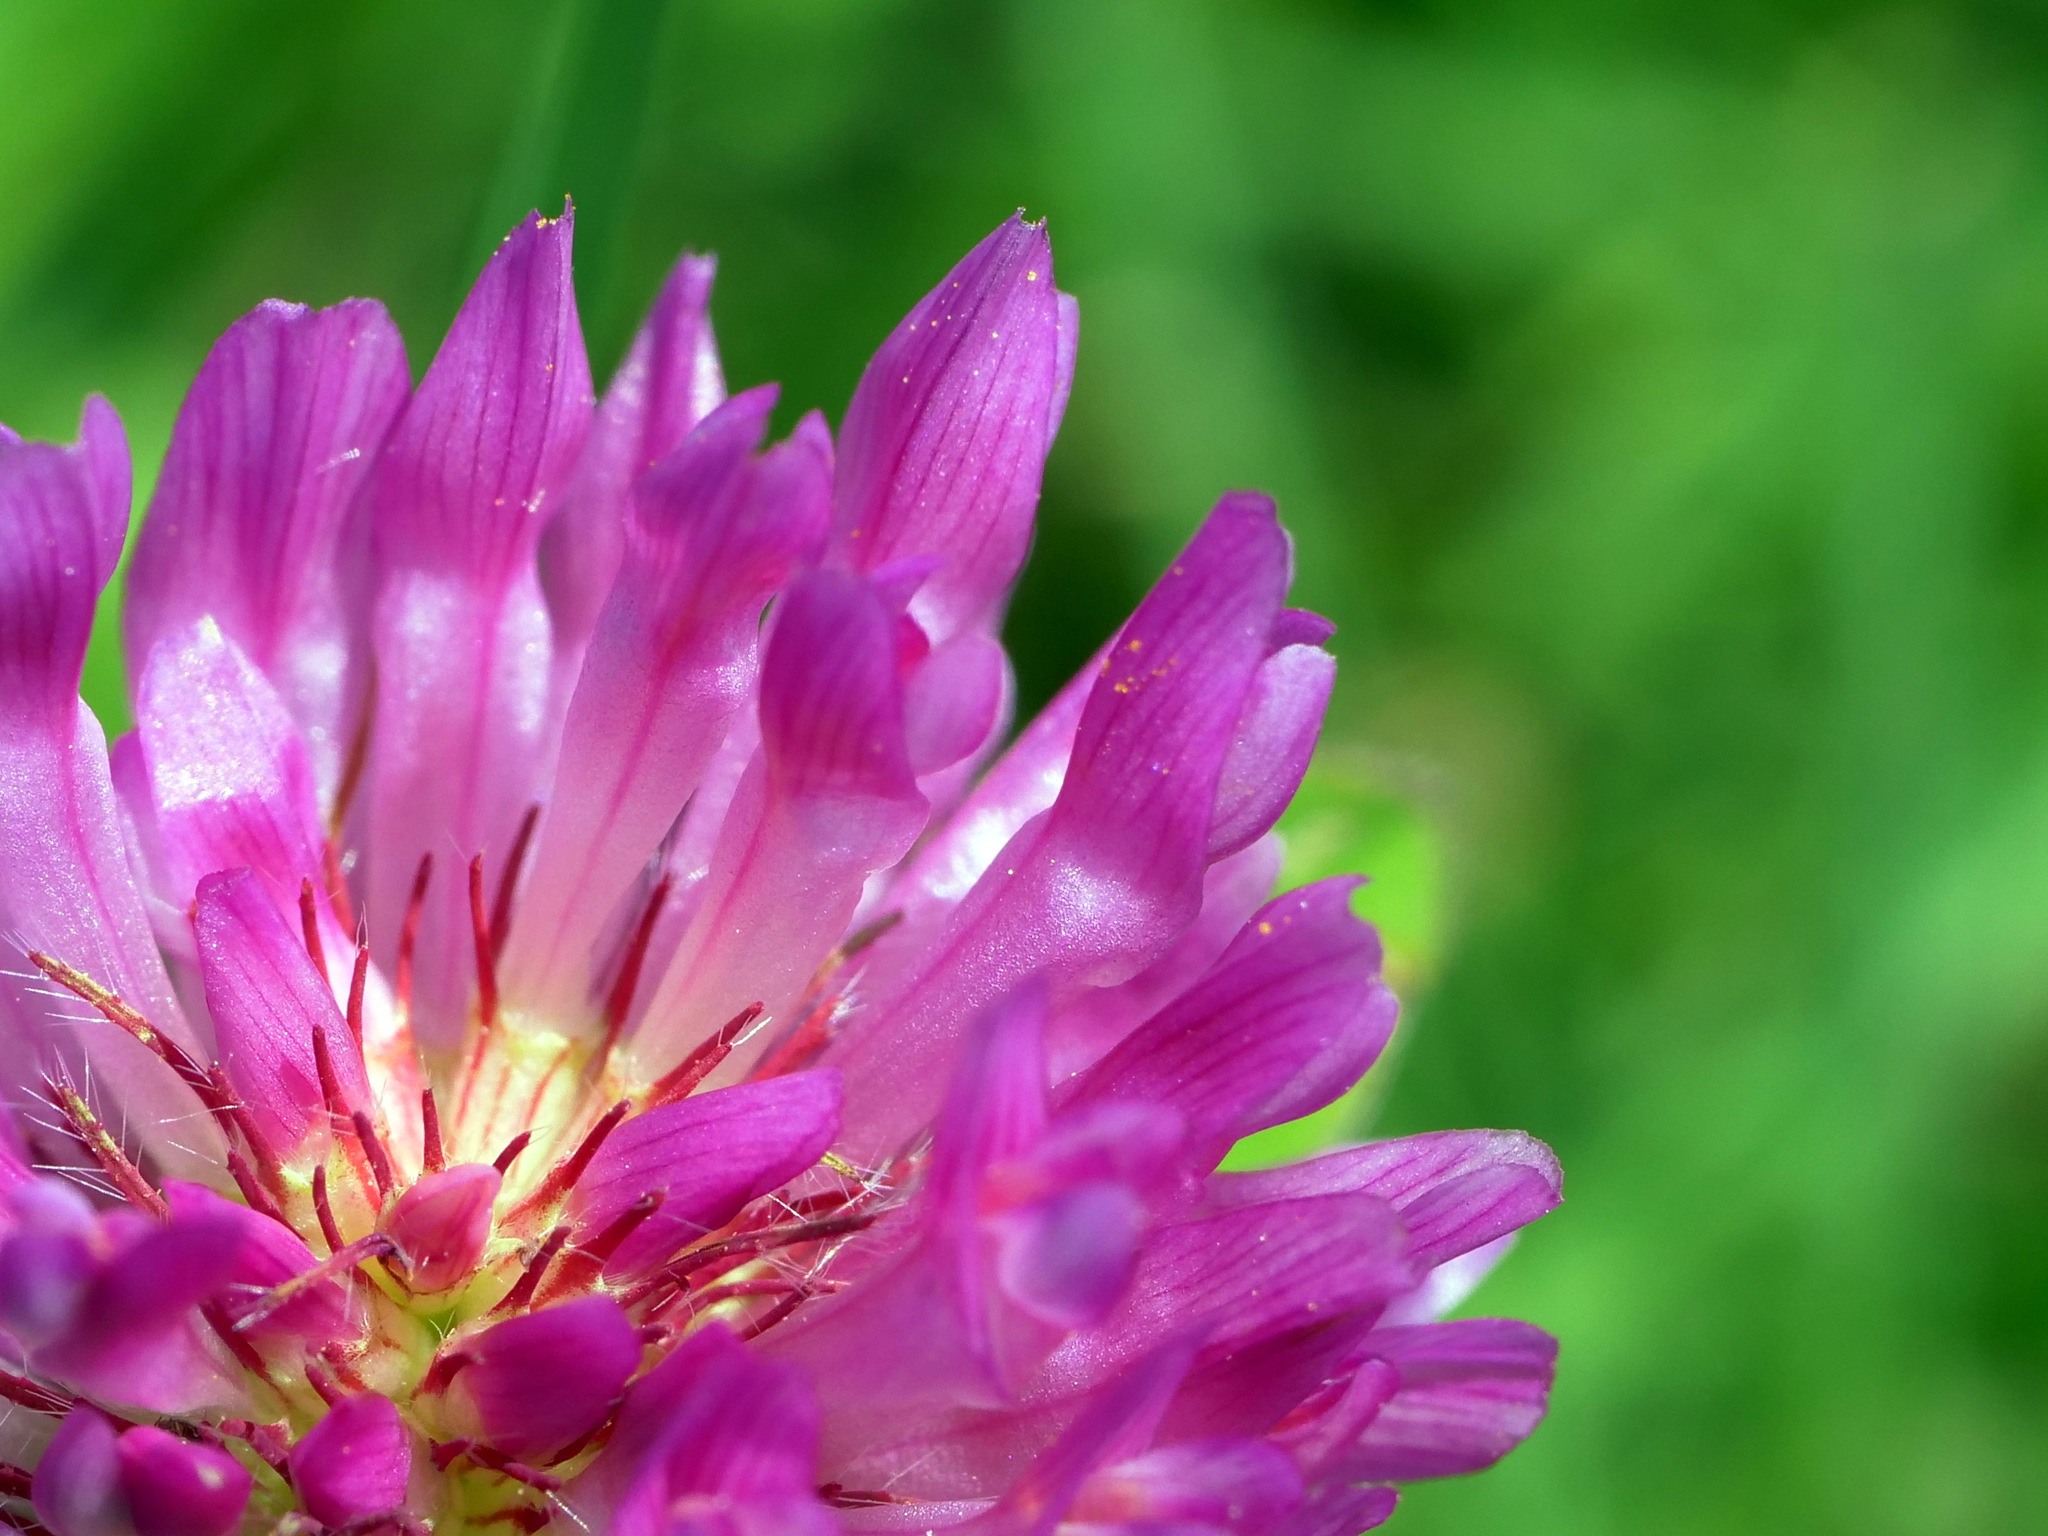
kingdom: Plantae
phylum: Tracheophyta
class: Magnoliopsida
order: Fabales
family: Fabaceae
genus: Trifolium
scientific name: Trifolium pratense
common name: Red clover
